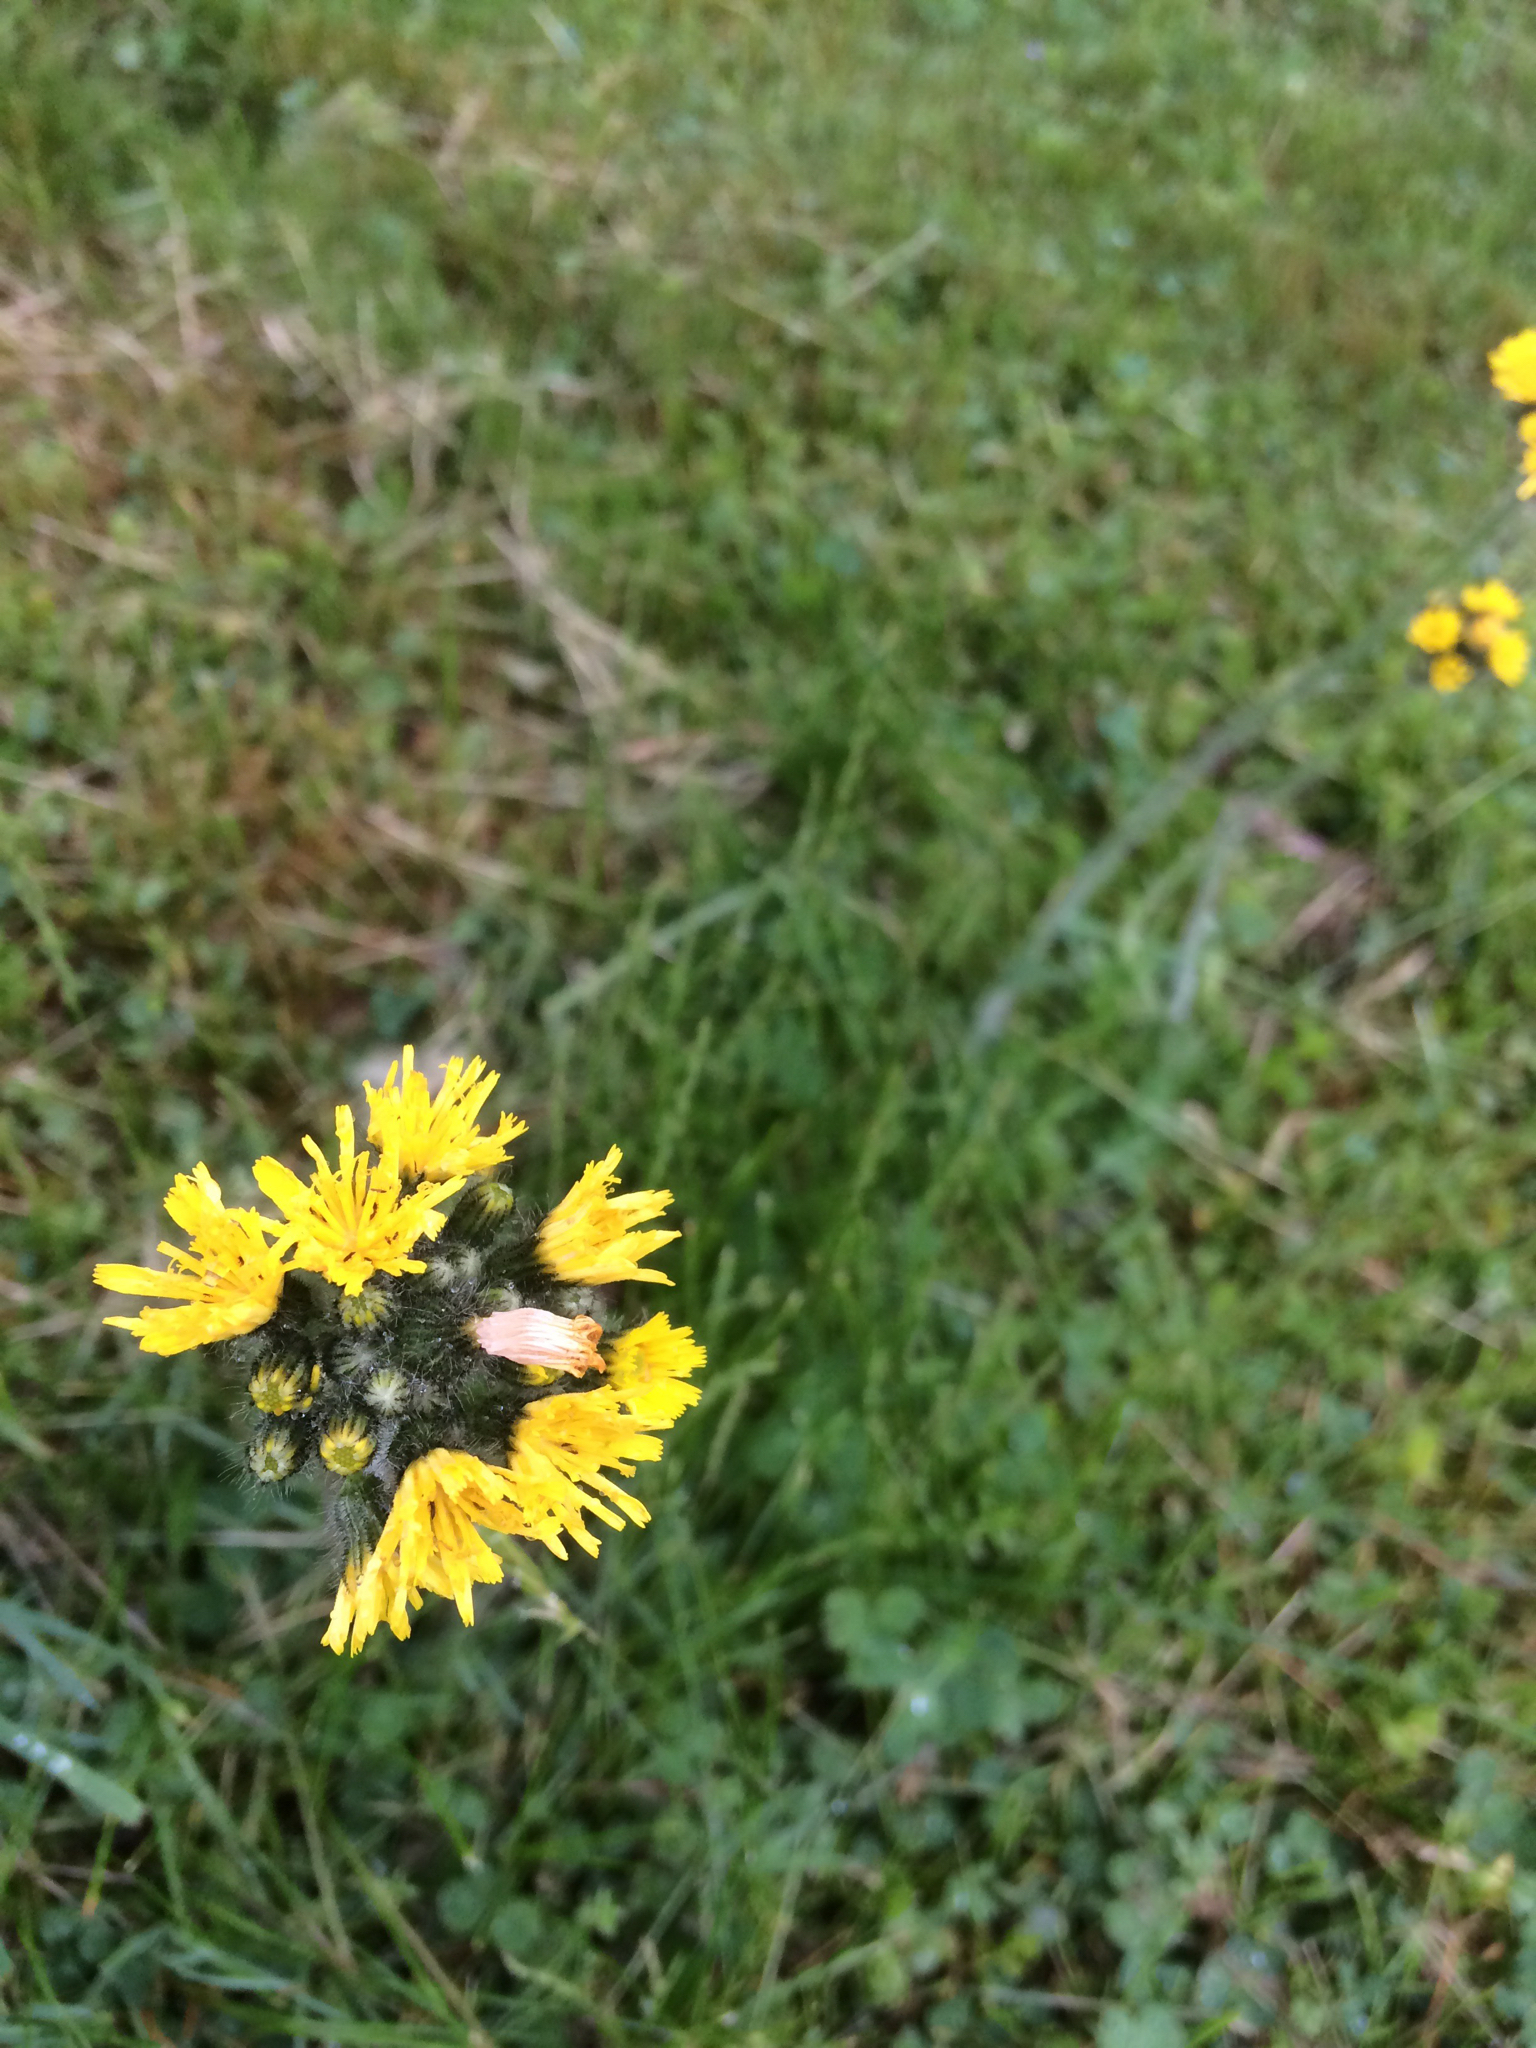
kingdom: Plantae
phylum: Tracheophyta
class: Magnoliopsida
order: Asterales
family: Asteraceae
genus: Pilosella
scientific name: Pilosella caespitosa
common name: Yellow fox-and-cubs
